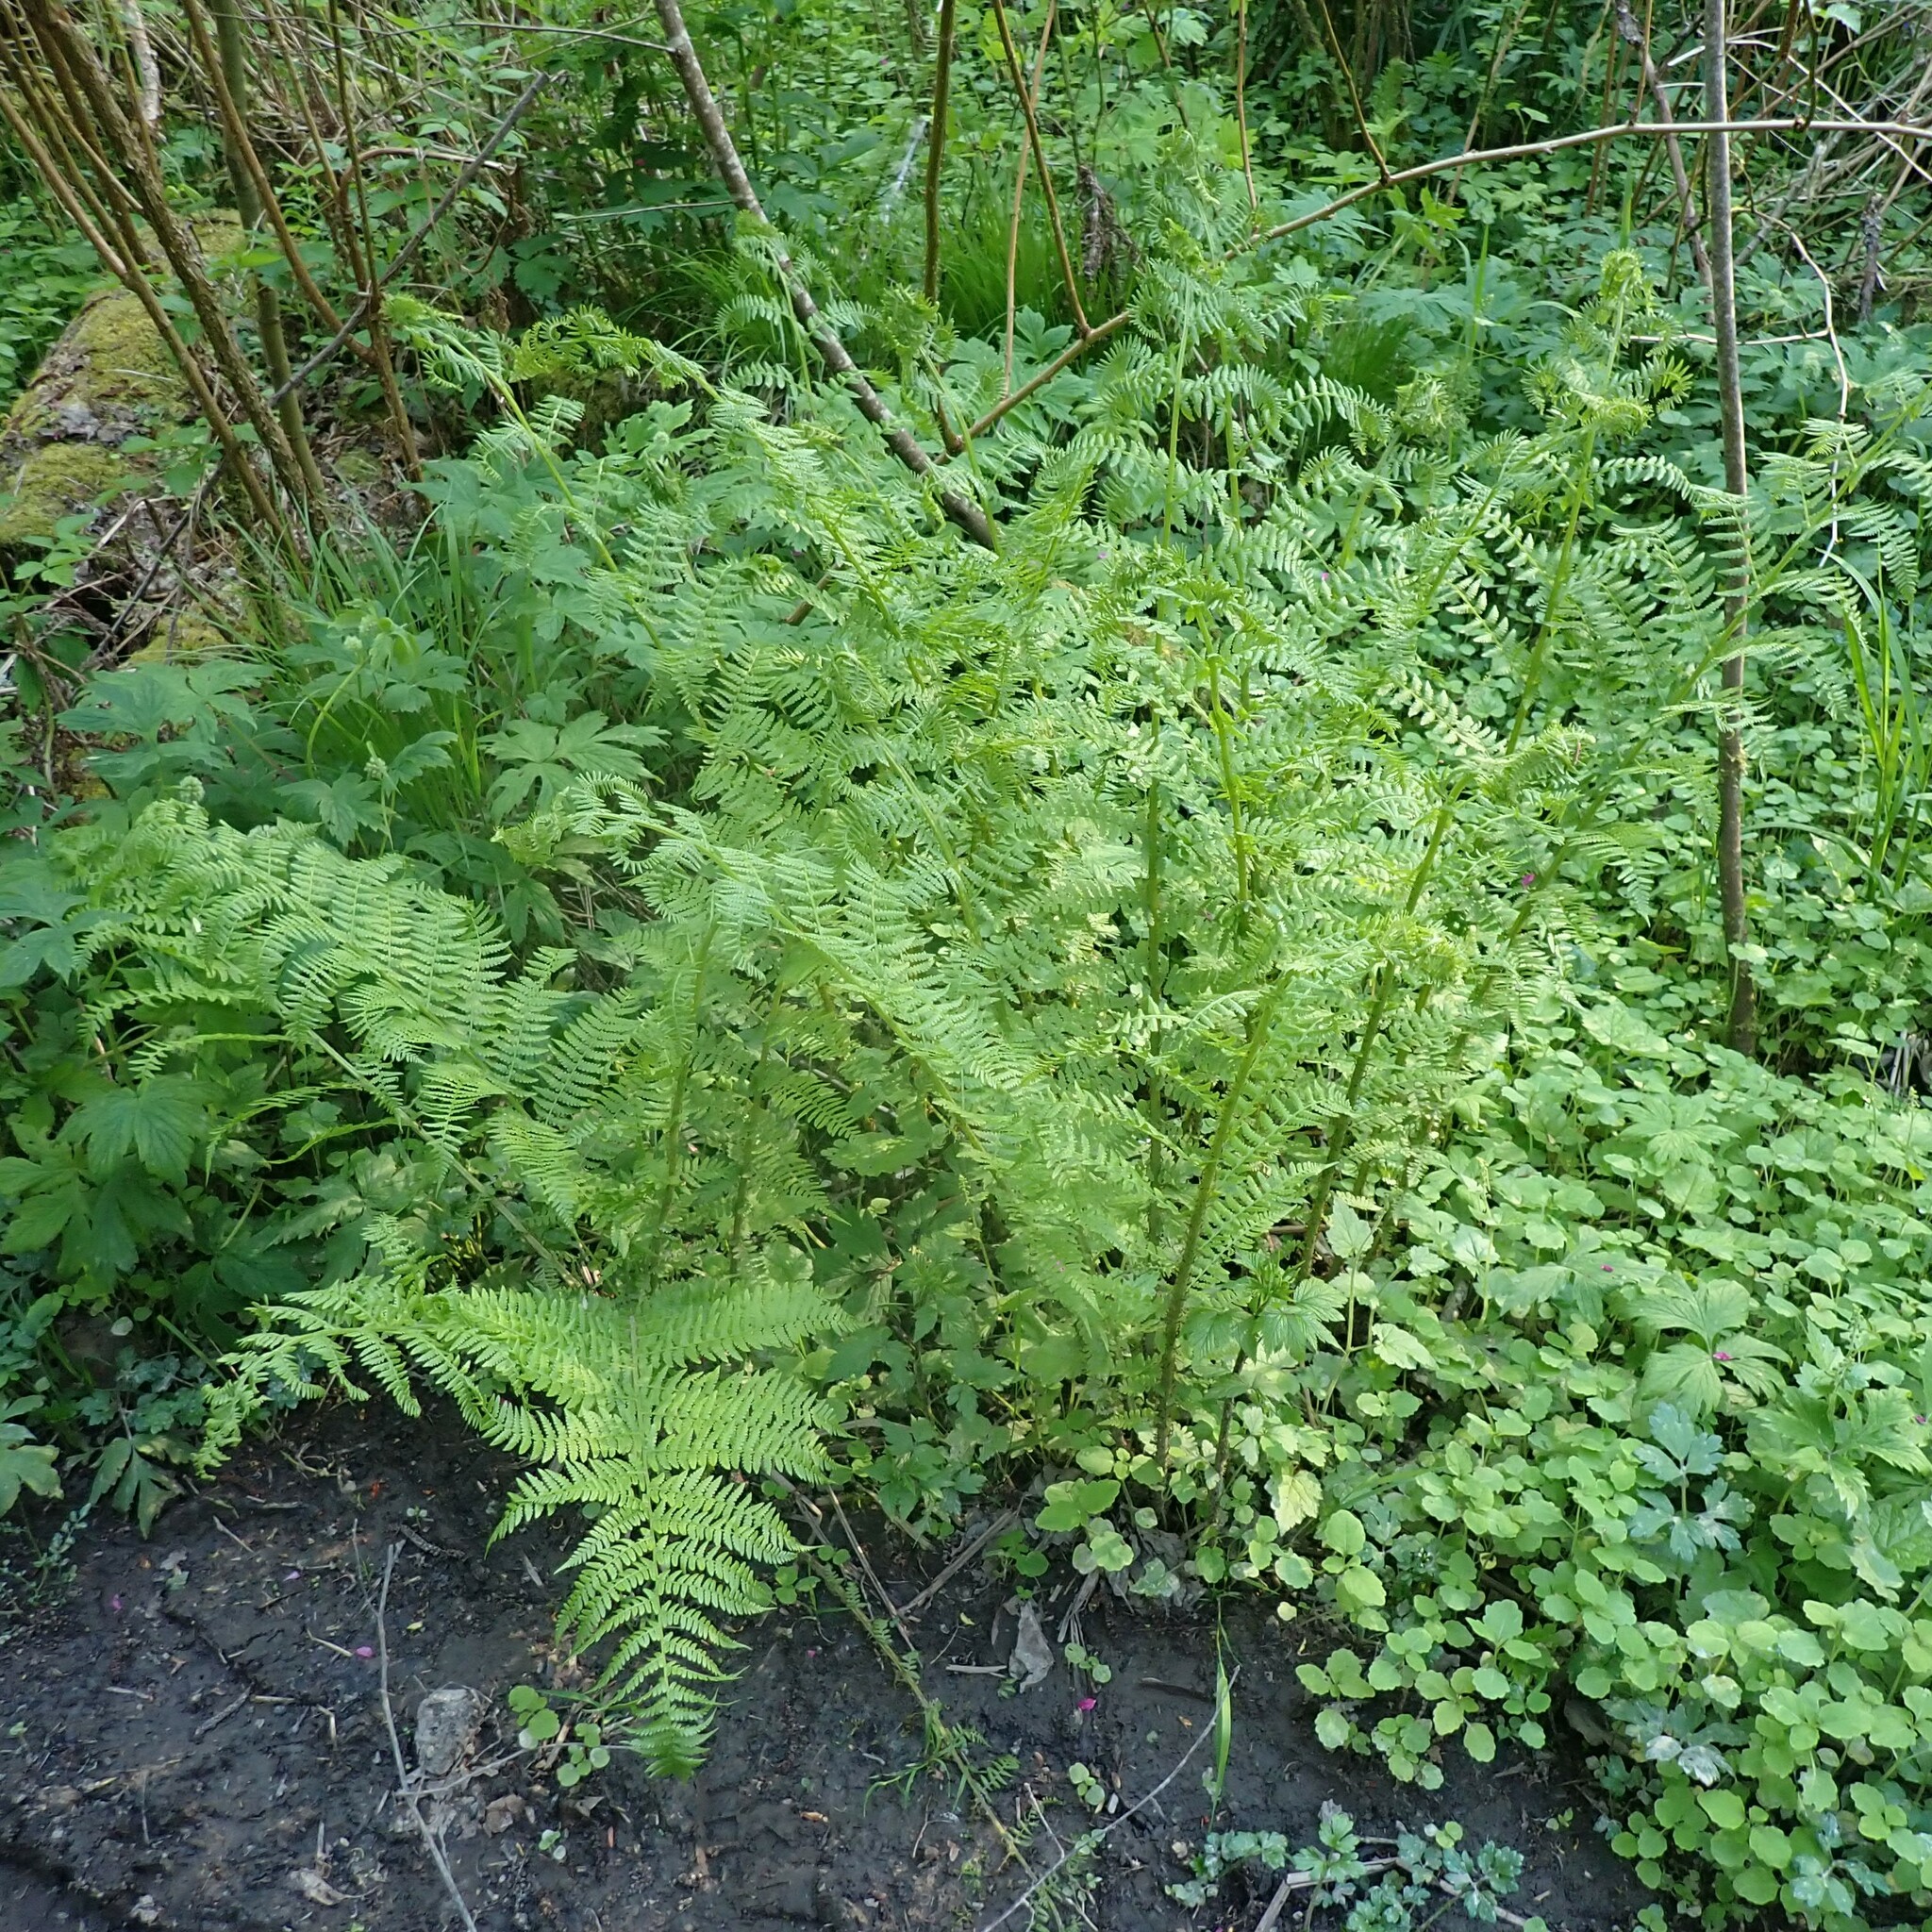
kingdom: Plantae
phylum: Tracheophyta
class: Polypodiopsida
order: Polypodiales
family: Athyriaceae
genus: Athyrium
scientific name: Athyrium filix-femina
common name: Lady fern
